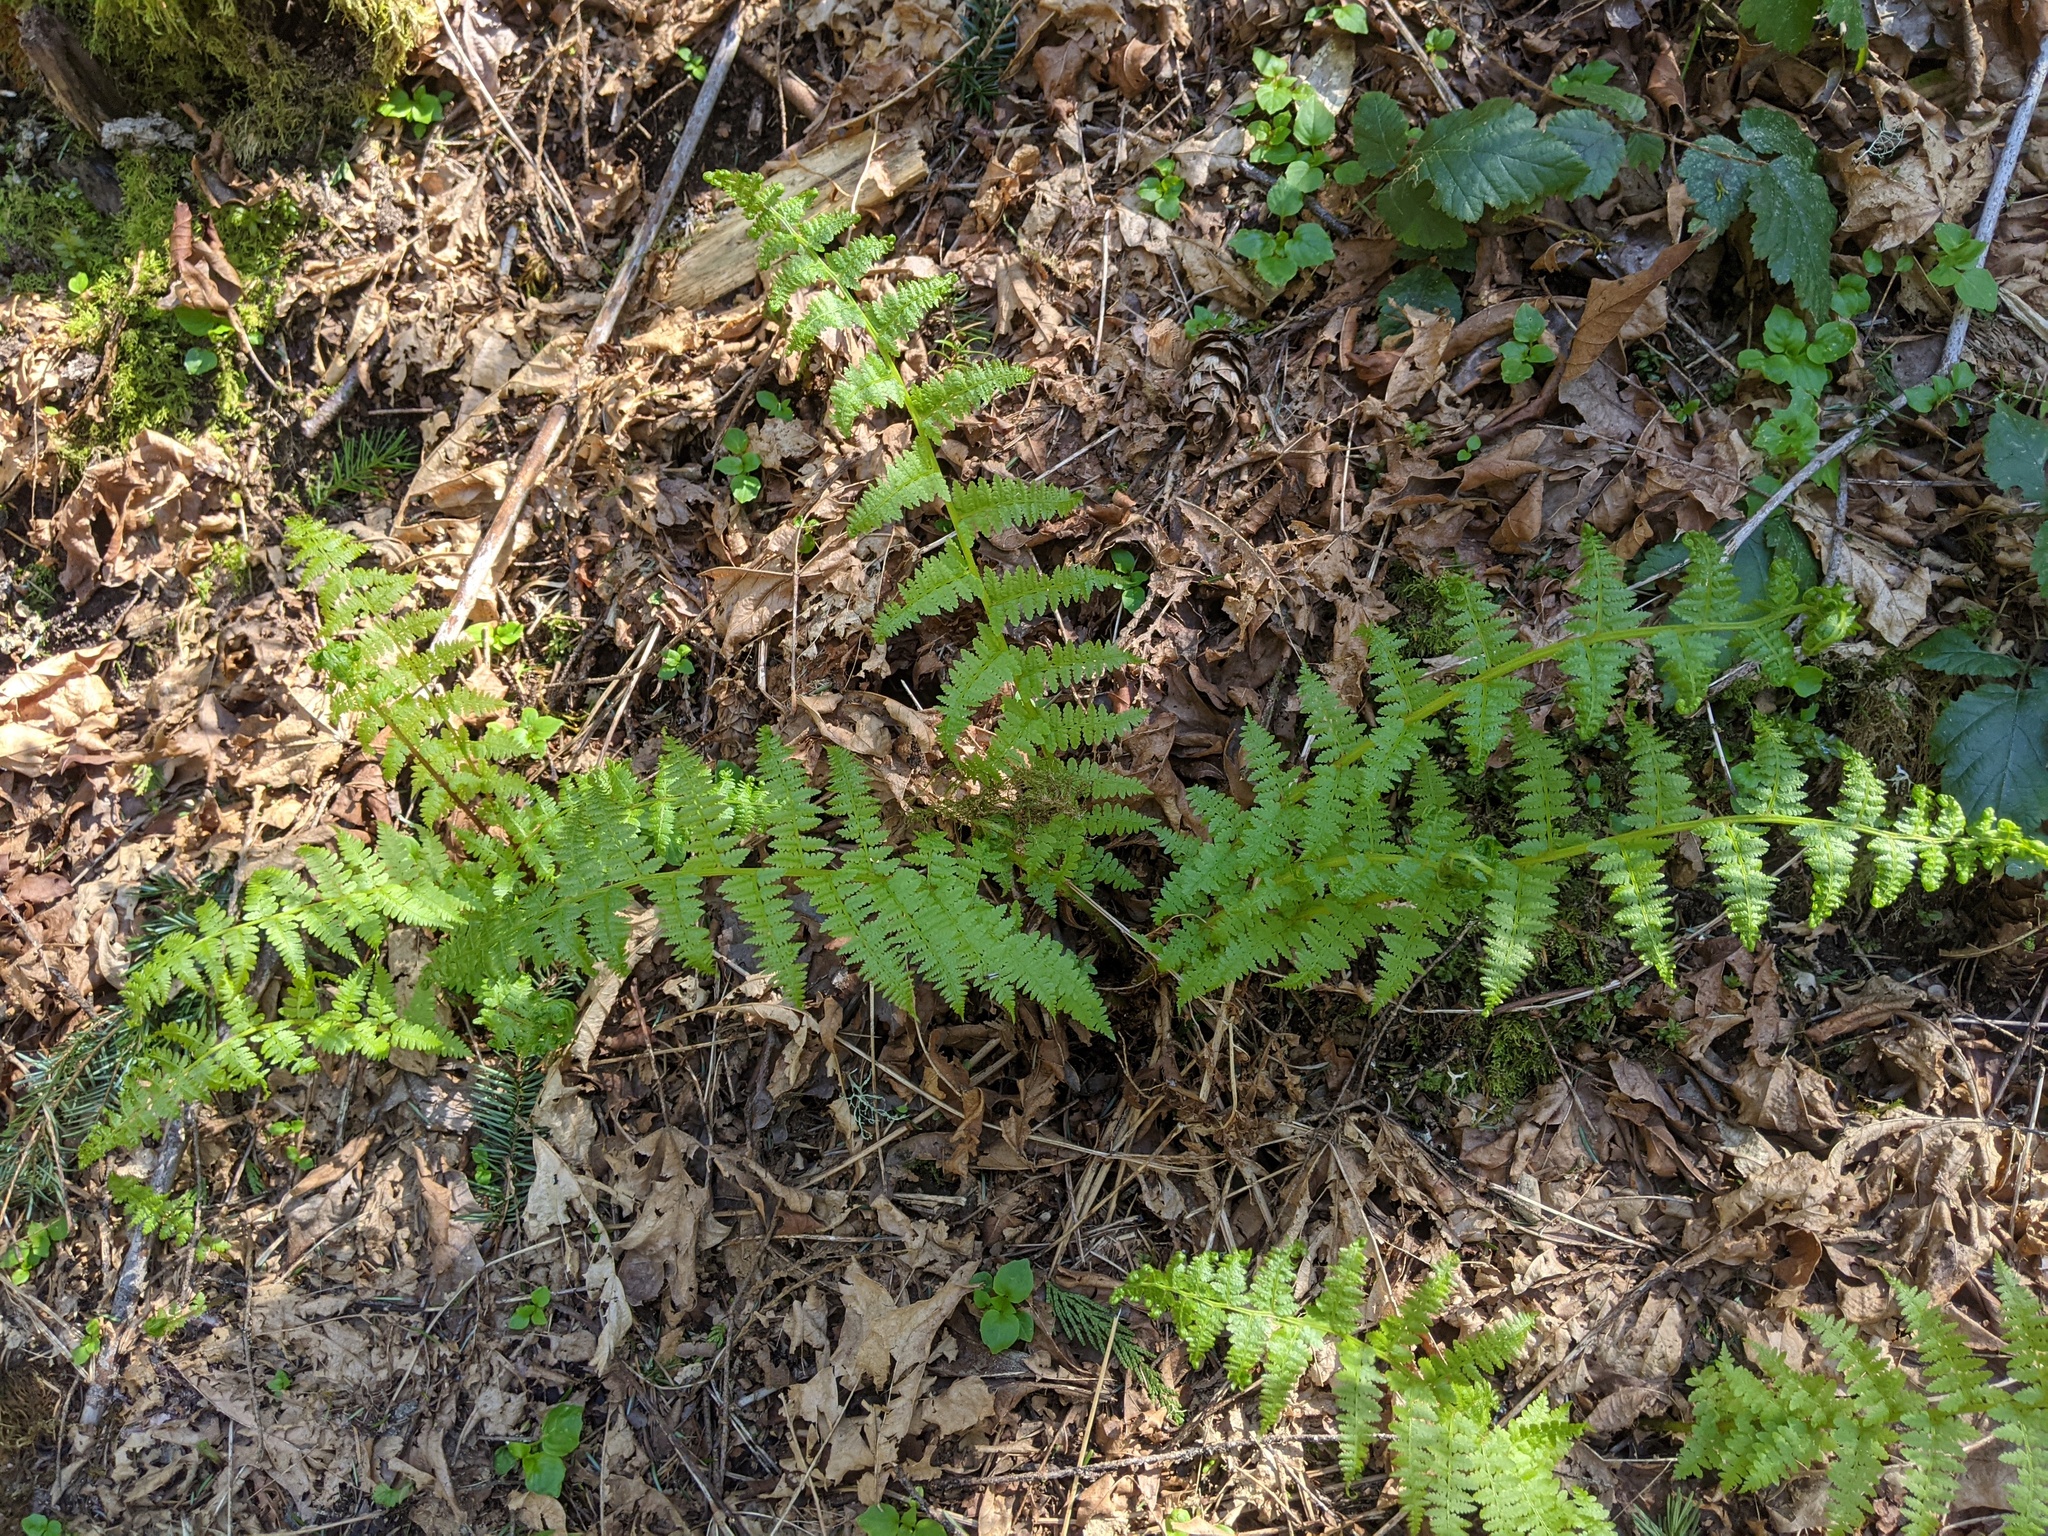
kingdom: Plantae
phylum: Tracheophyta
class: Polypodiopsida
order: Polypodiales
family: Athyriaceae
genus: Athyrium
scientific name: Athyrium filix-femina
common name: Lady fern
